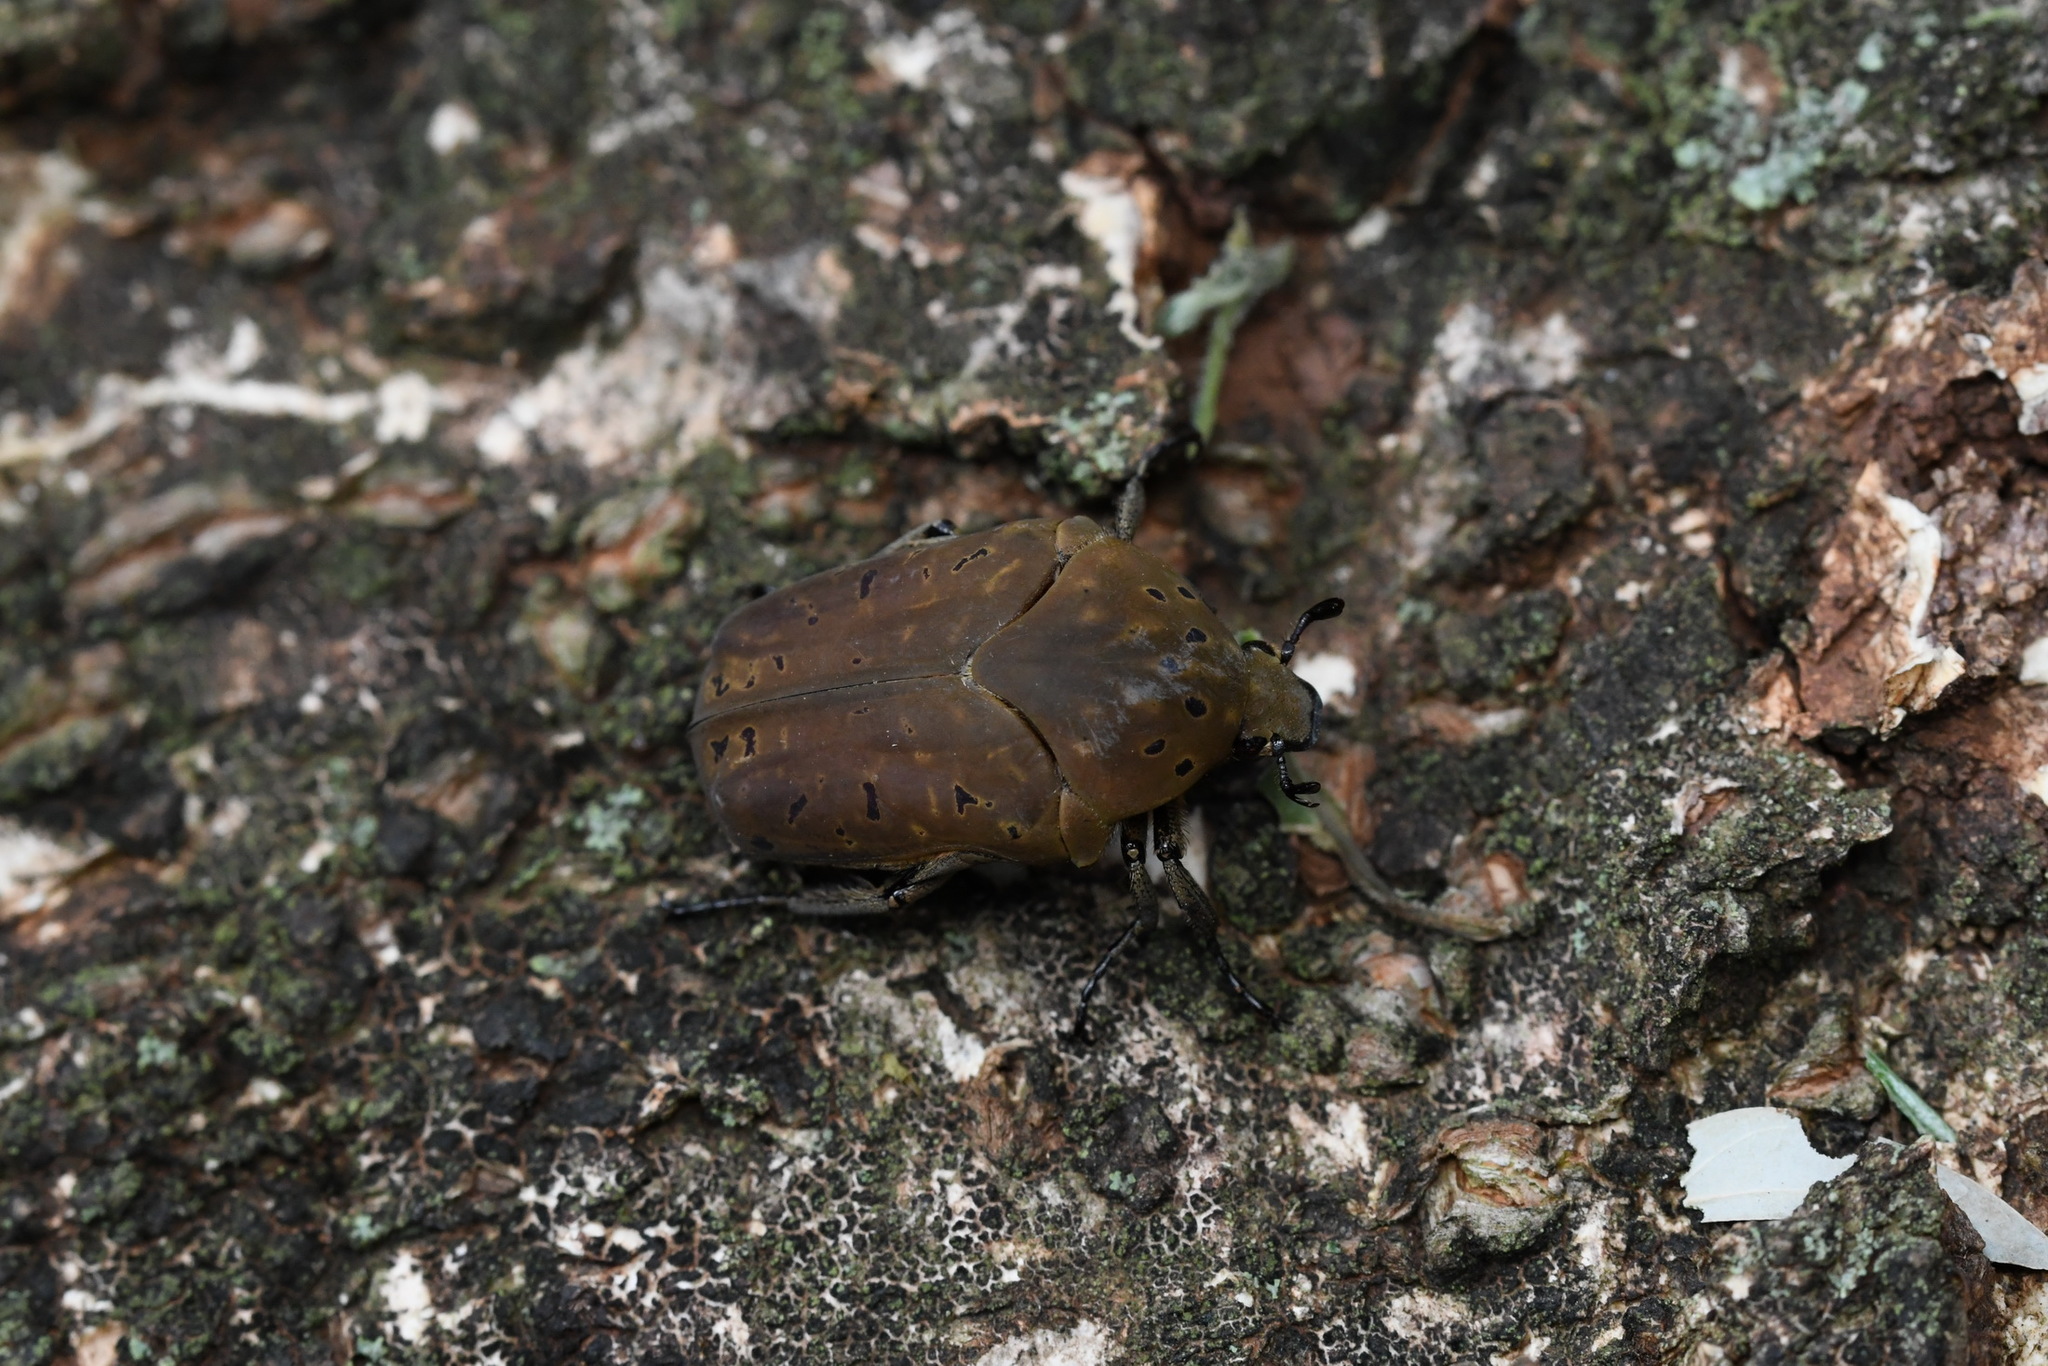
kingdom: Animalia
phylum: Arthropoda
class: Insecta
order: Coleoptera
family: Scarabaeidae
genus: Gymnetis
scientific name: Gymnetis pantherina
